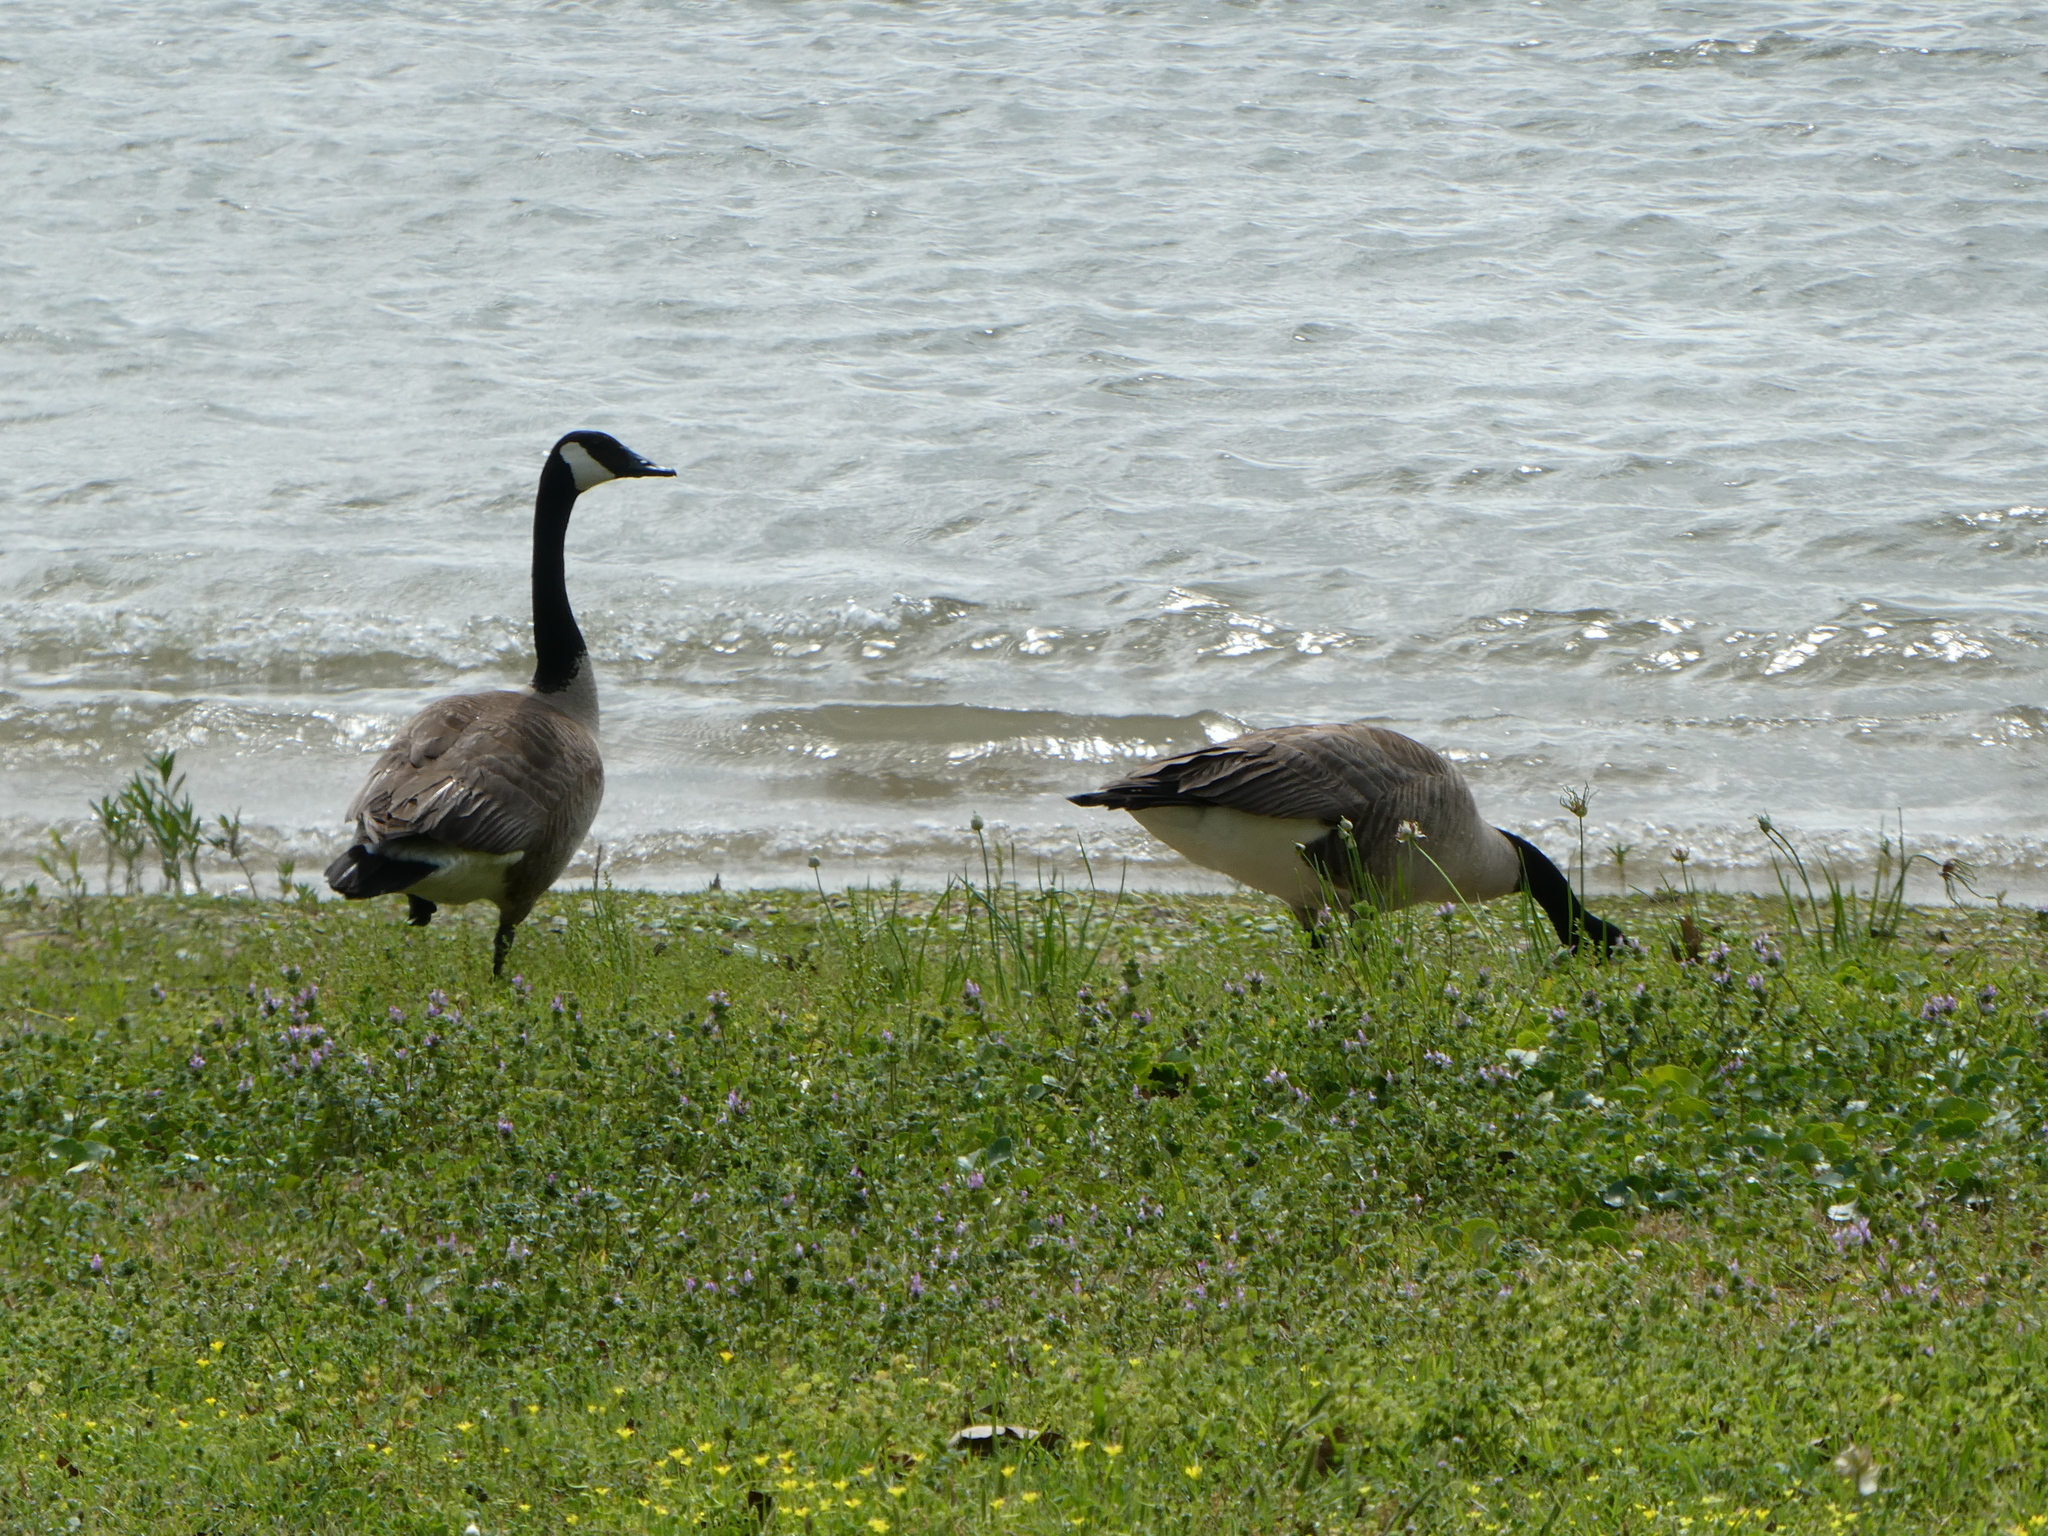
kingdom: Animalia
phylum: Chordata
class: Aves
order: Anseriformes
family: Anatidae
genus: Branta
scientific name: Branta canadensis
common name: Canada goose
